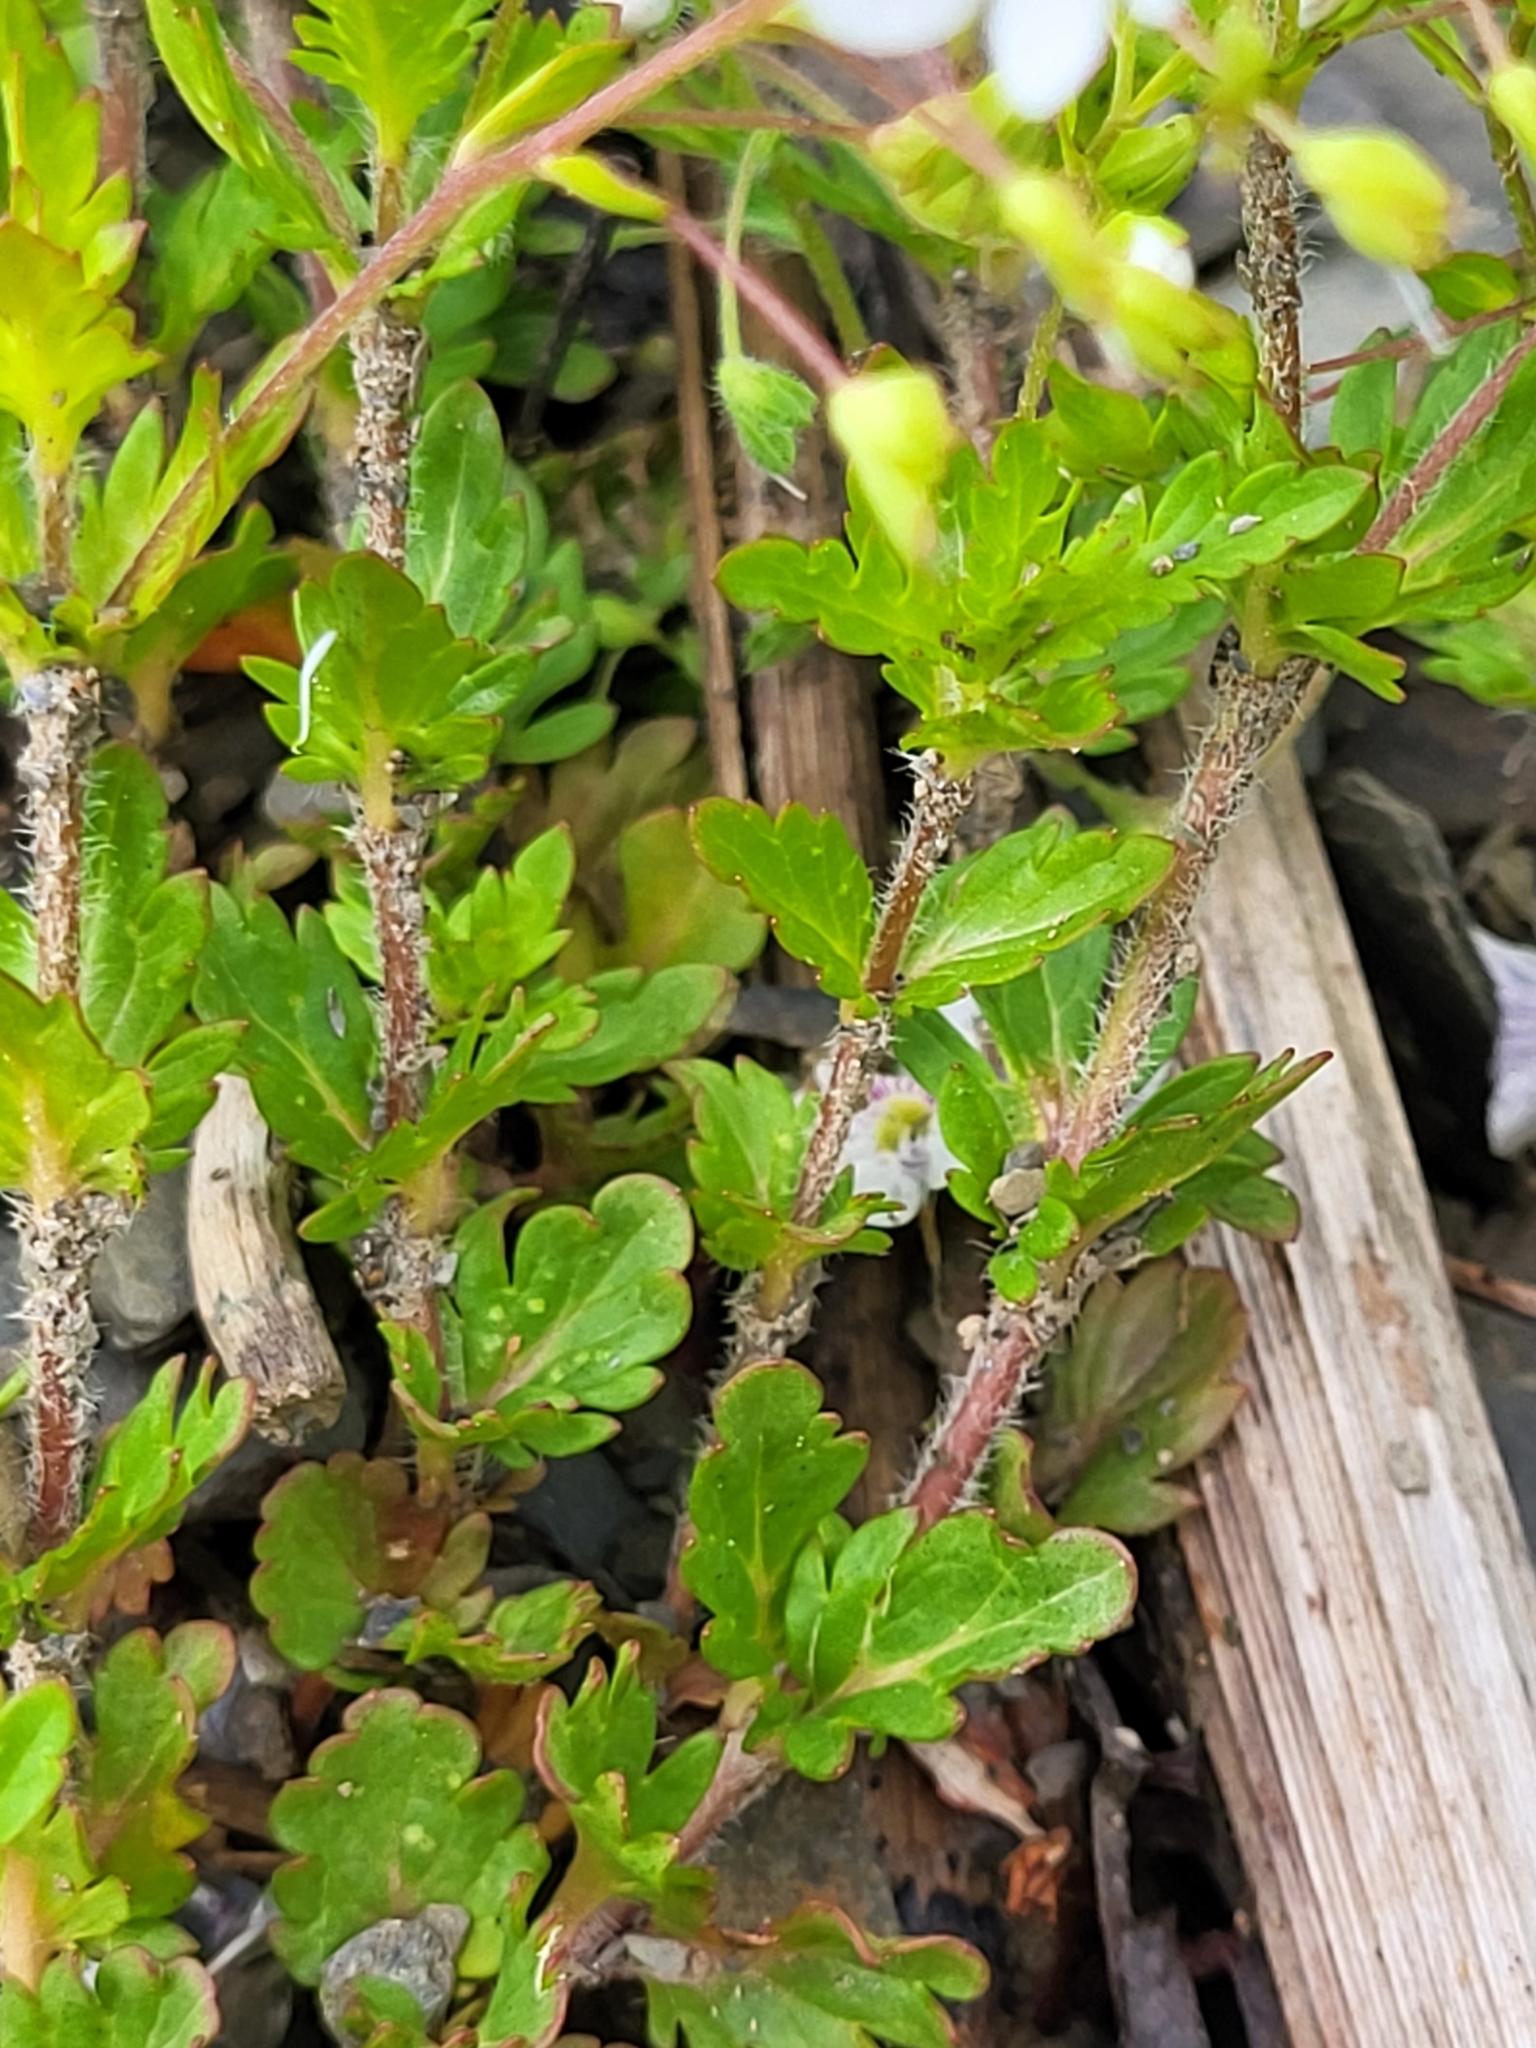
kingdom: Plantae
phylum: Tracheophyta
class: Magnoliopsida
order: Lamiales
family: Plantaginaceae
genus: Veronica
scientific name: Veronica peduncularis
